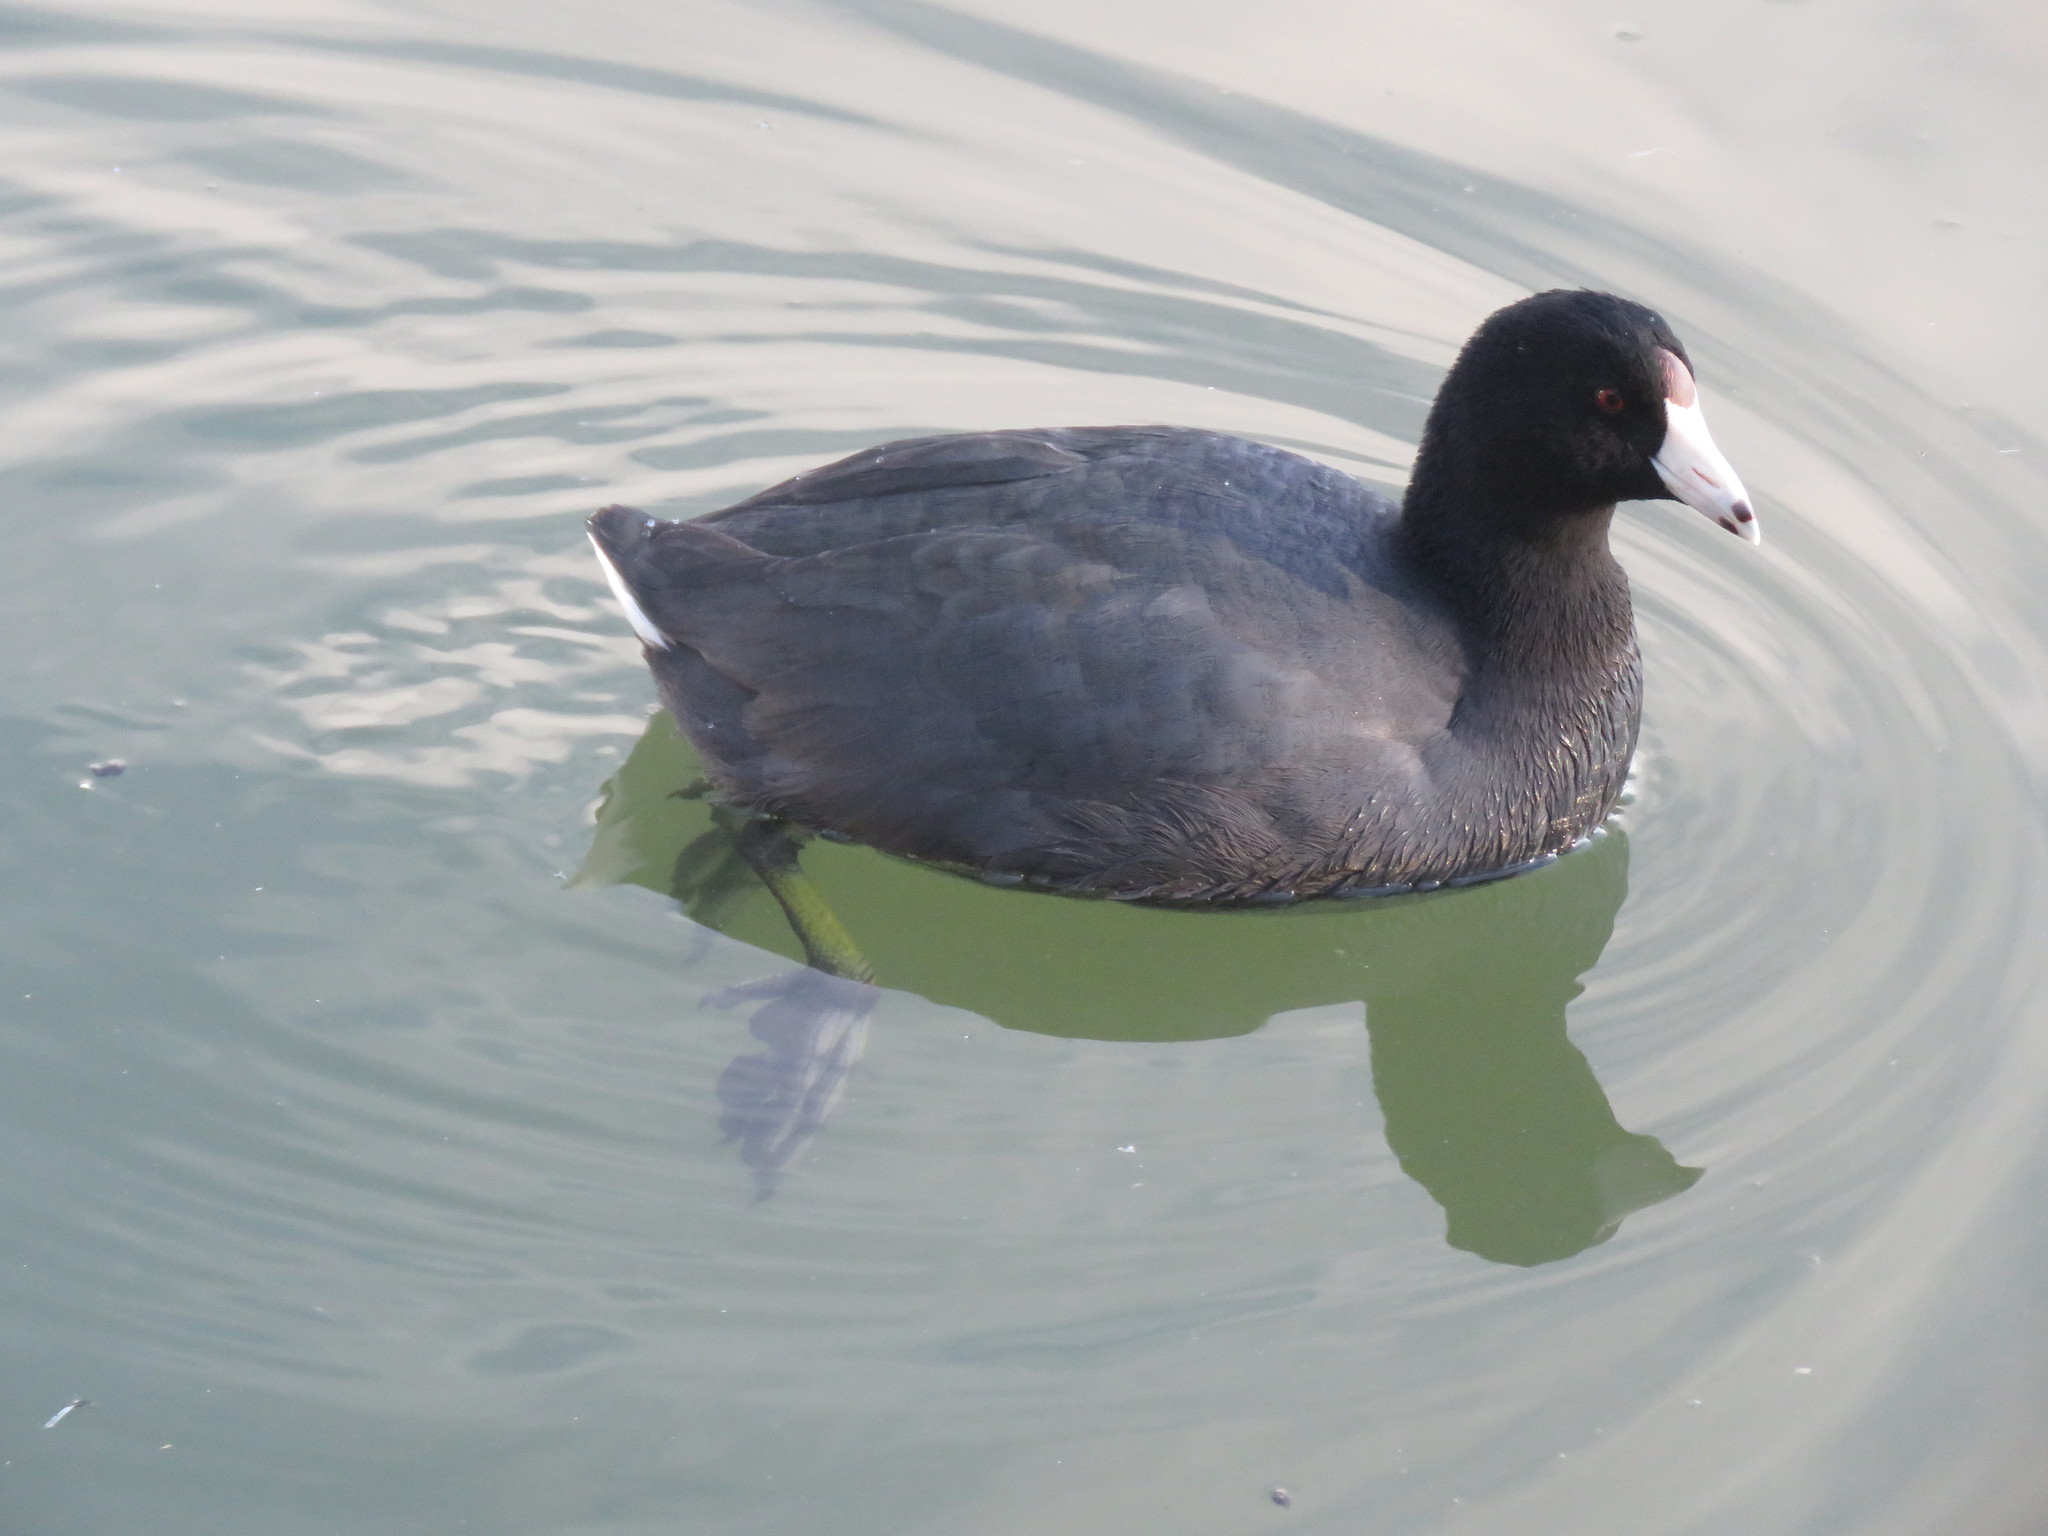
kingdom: Animalia
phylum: Chordata
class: Aves
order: Gruiformes
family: Rallidae
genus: Fulica
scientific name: Fulica americana
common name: American coot
